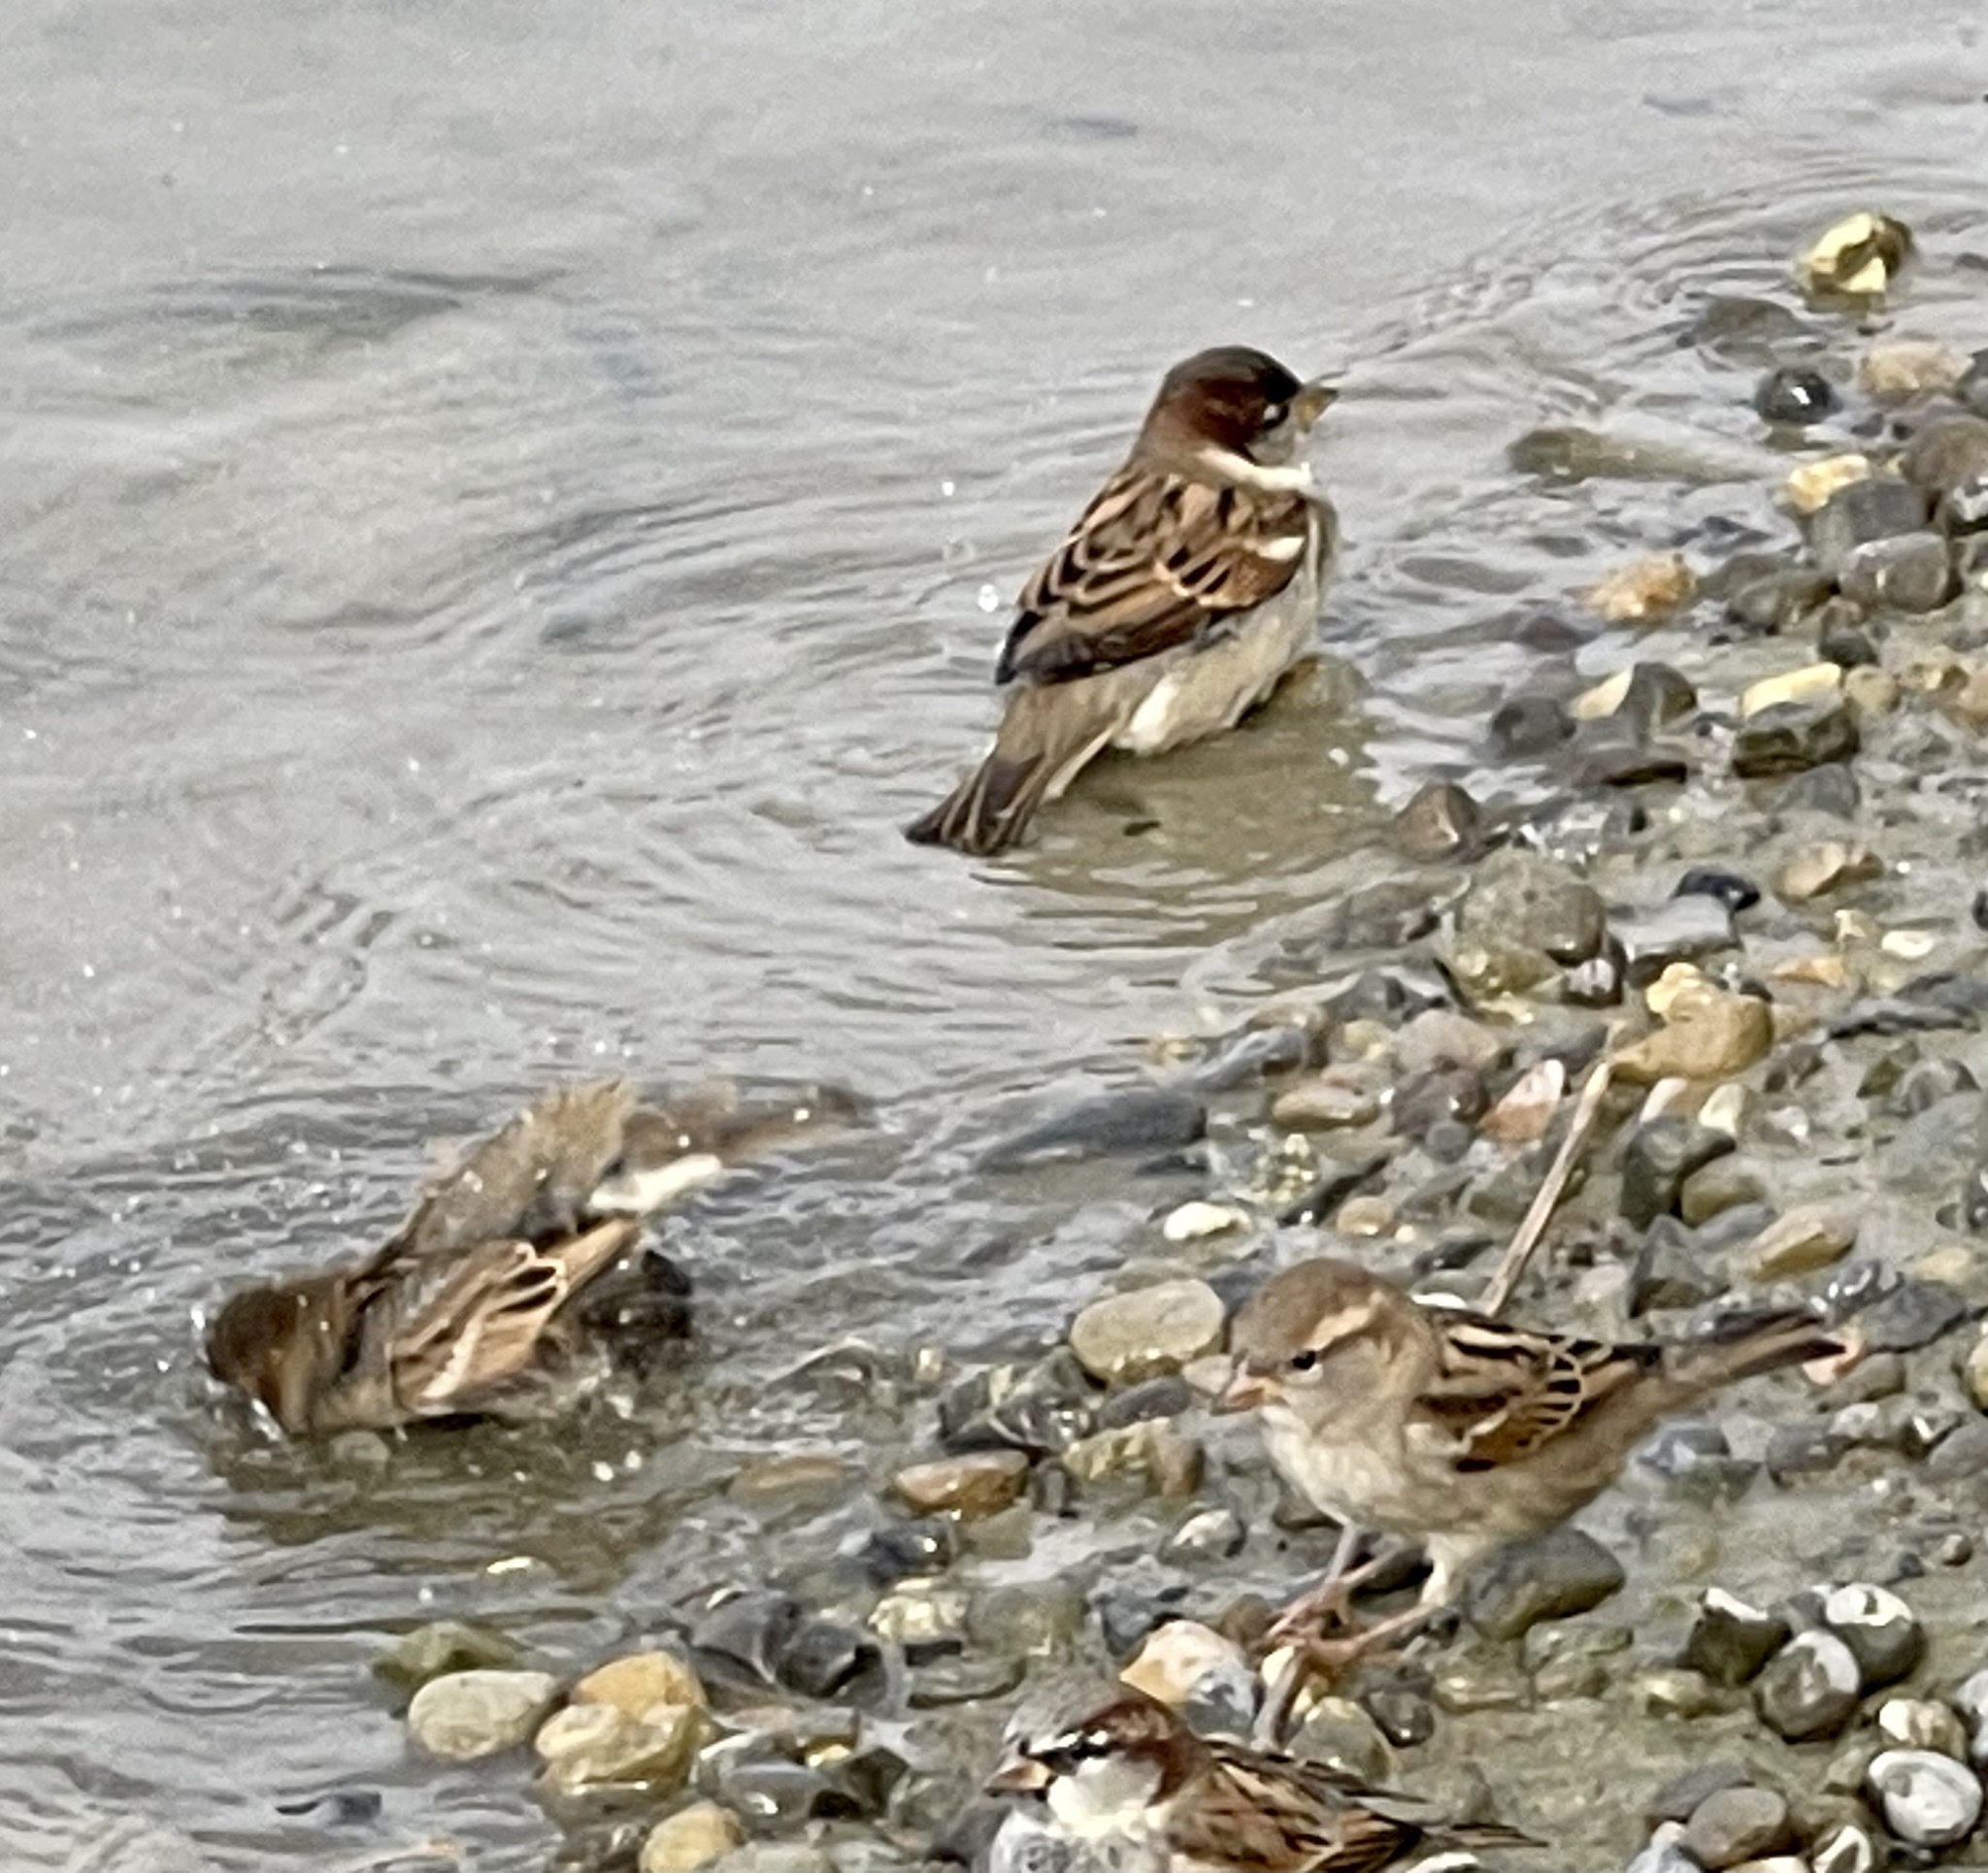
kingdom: Animalia
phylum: Chordata
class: Aves
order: Passeriformes
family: Passeridae
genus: Passer
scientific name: Passer domesticus
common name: House sparrow
